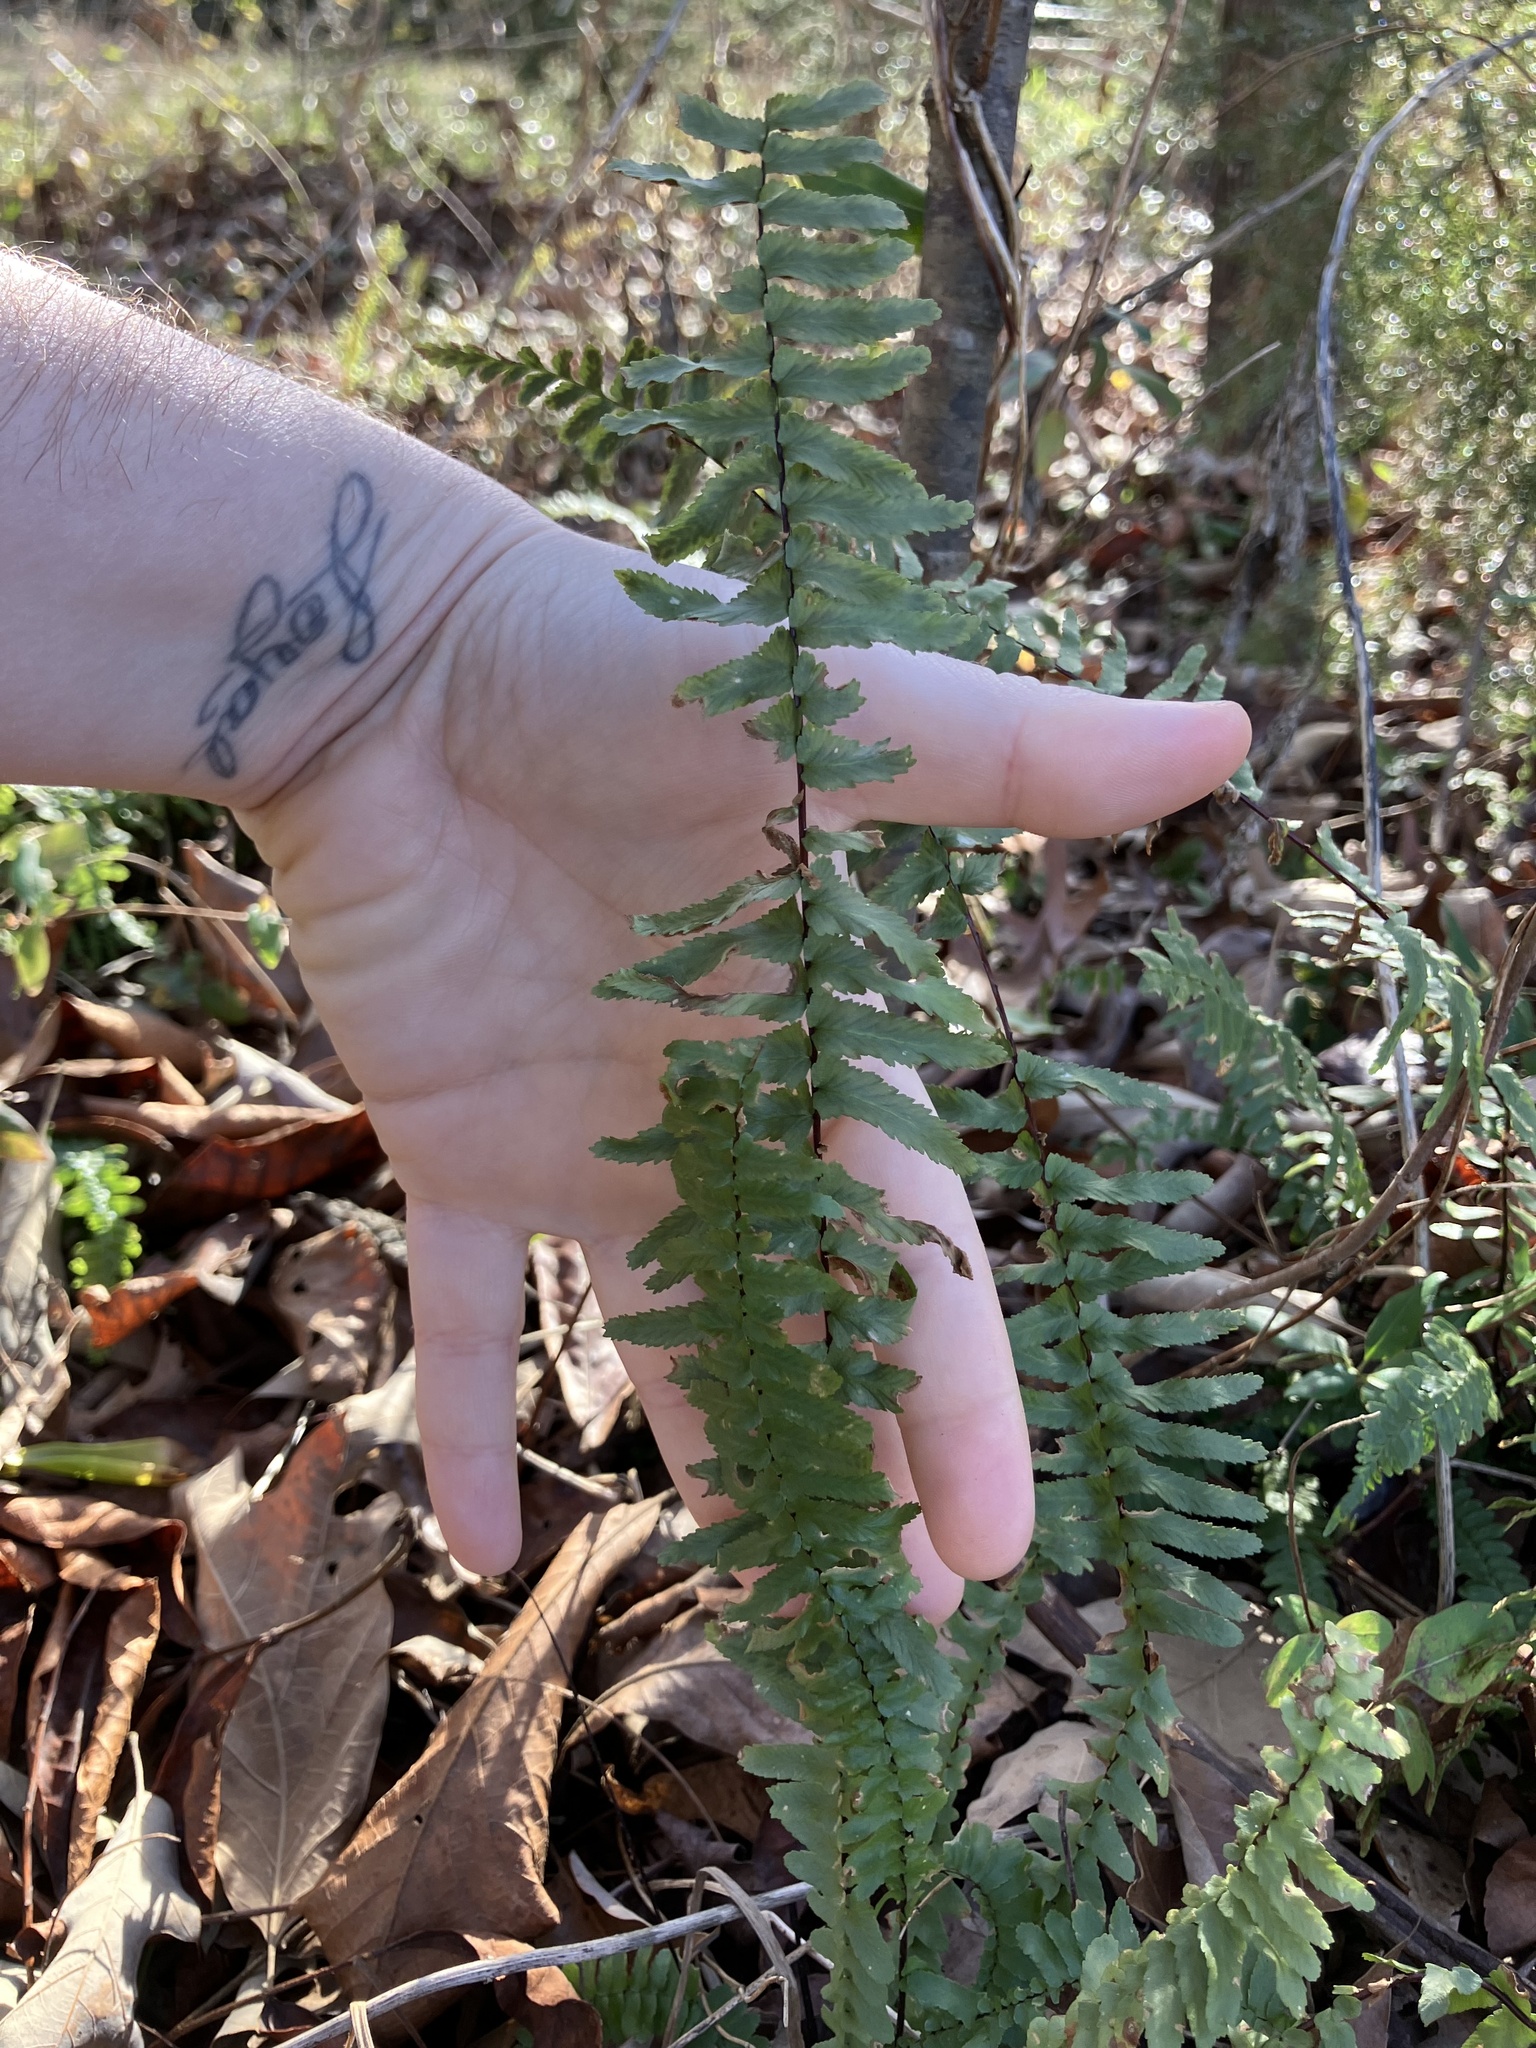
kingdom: Plantae
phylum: Tracheophyta
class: Polypodiopsida
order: Polypodiales
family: Aspleniaceae
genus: Asplenium
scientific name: Asplenium platyneuron
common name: Ebony spleenwort
